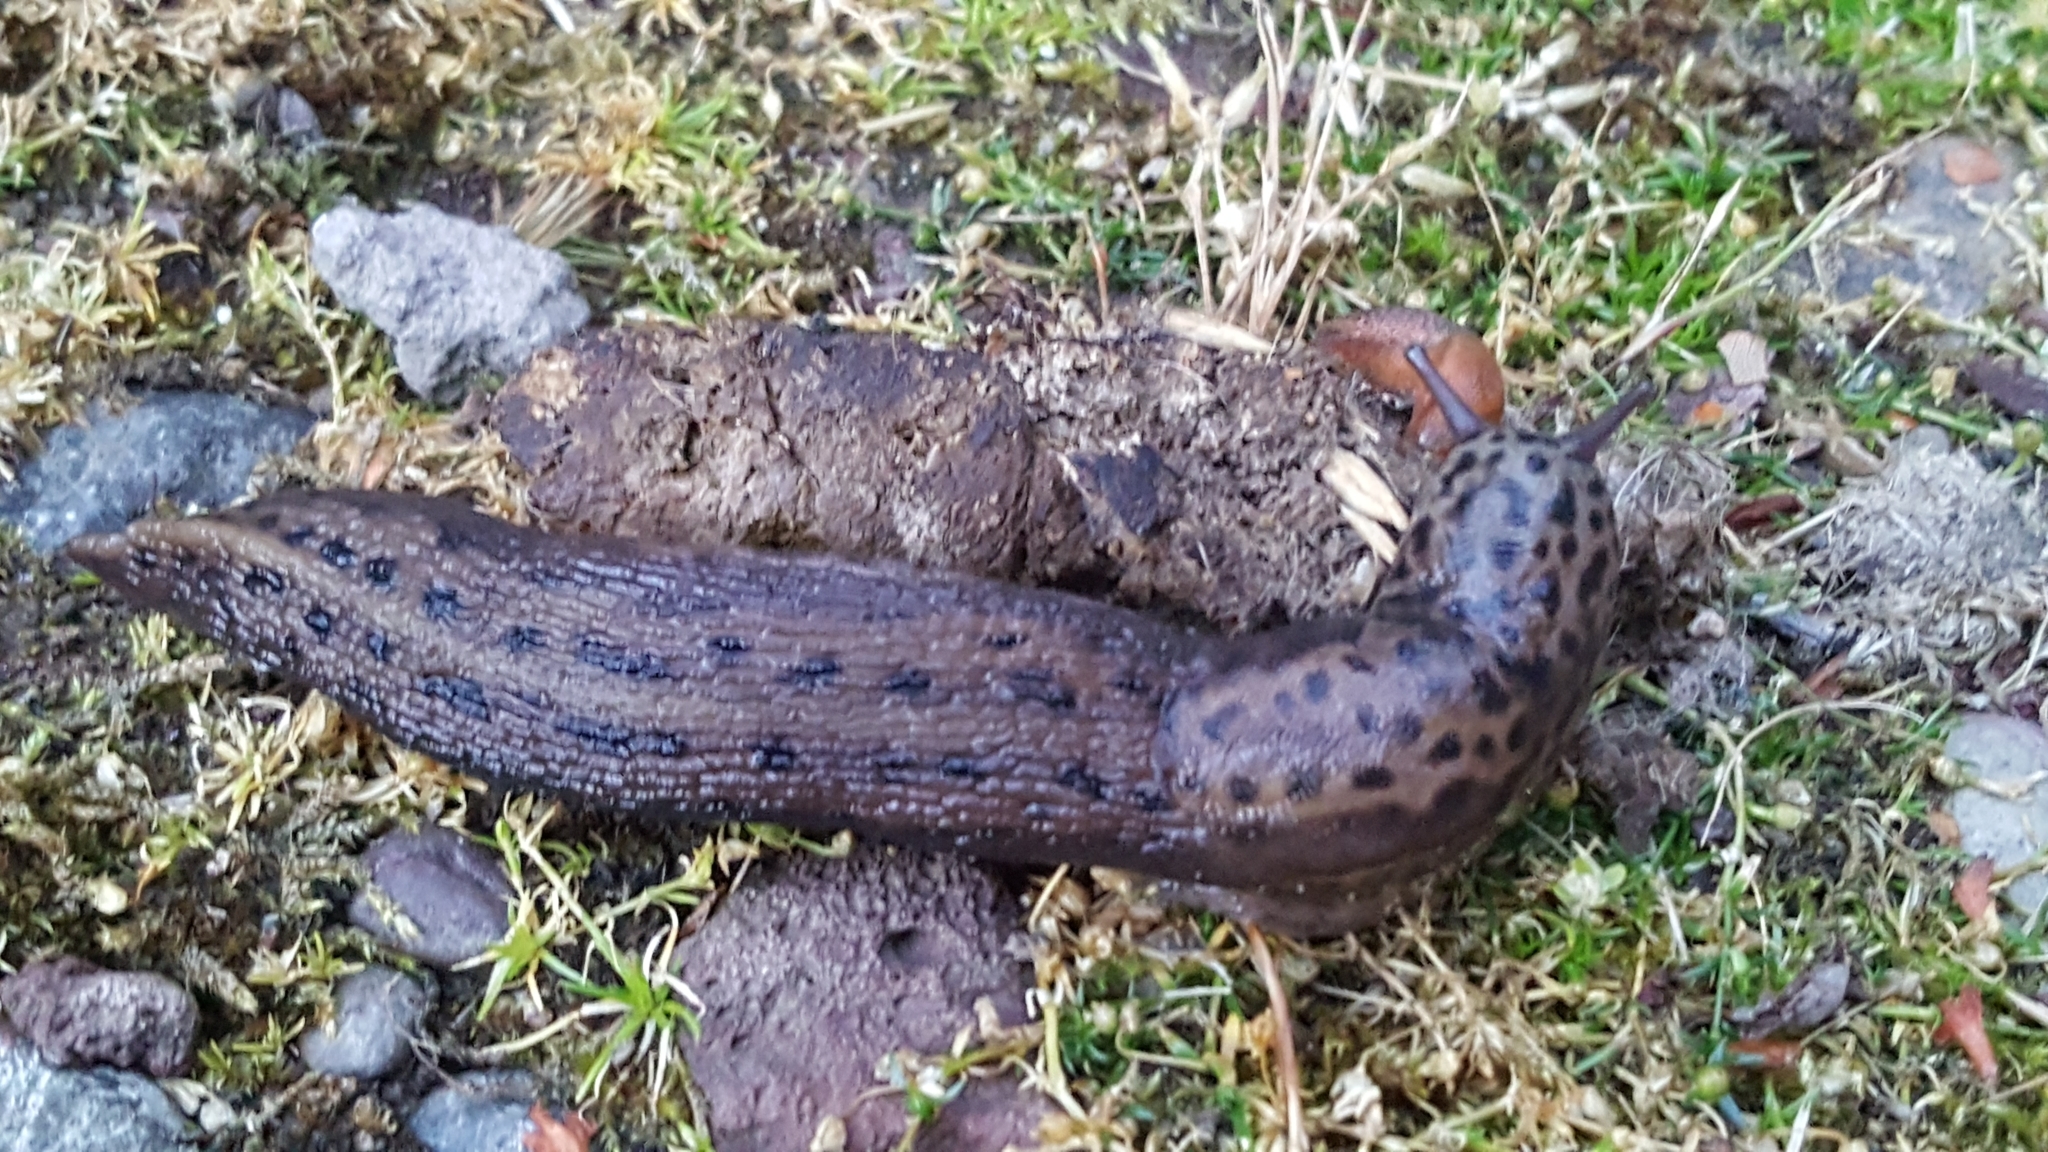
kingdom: Animalia
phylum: Mollusca
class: Gastropoda
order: Stylommatophora
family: Limacidae
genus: Limax
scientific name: Limax maximus
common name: Great grey slug
